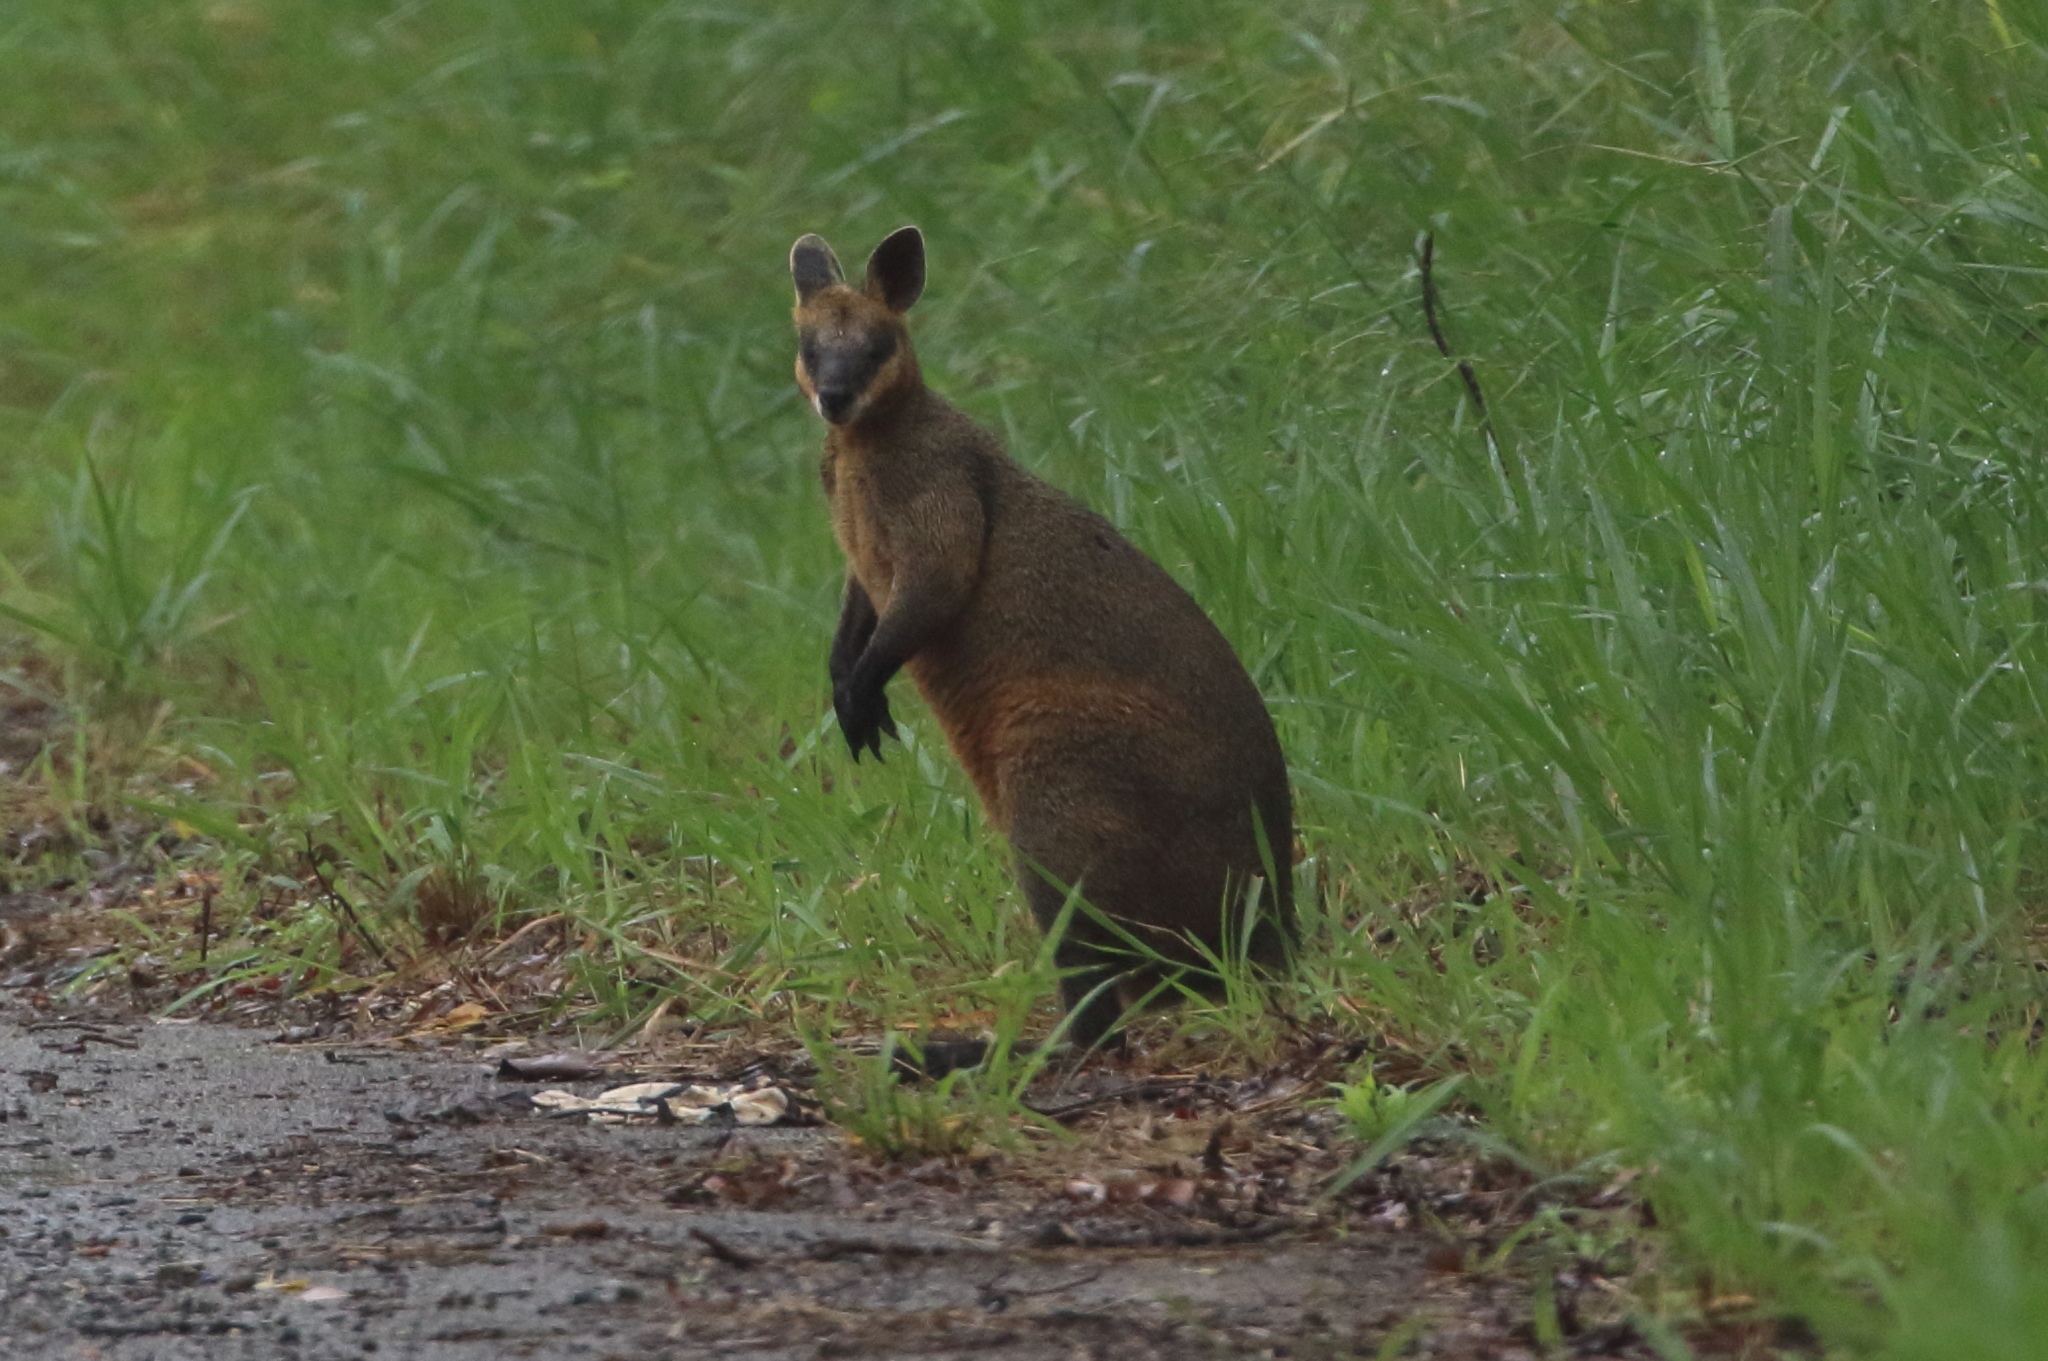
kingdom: Animalia
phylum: Chordata
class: Mammalia
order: Diprotodontia
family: Macropodidae
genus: Wallabia
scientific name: Wallabia bicolor
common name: Swamp wallaby
